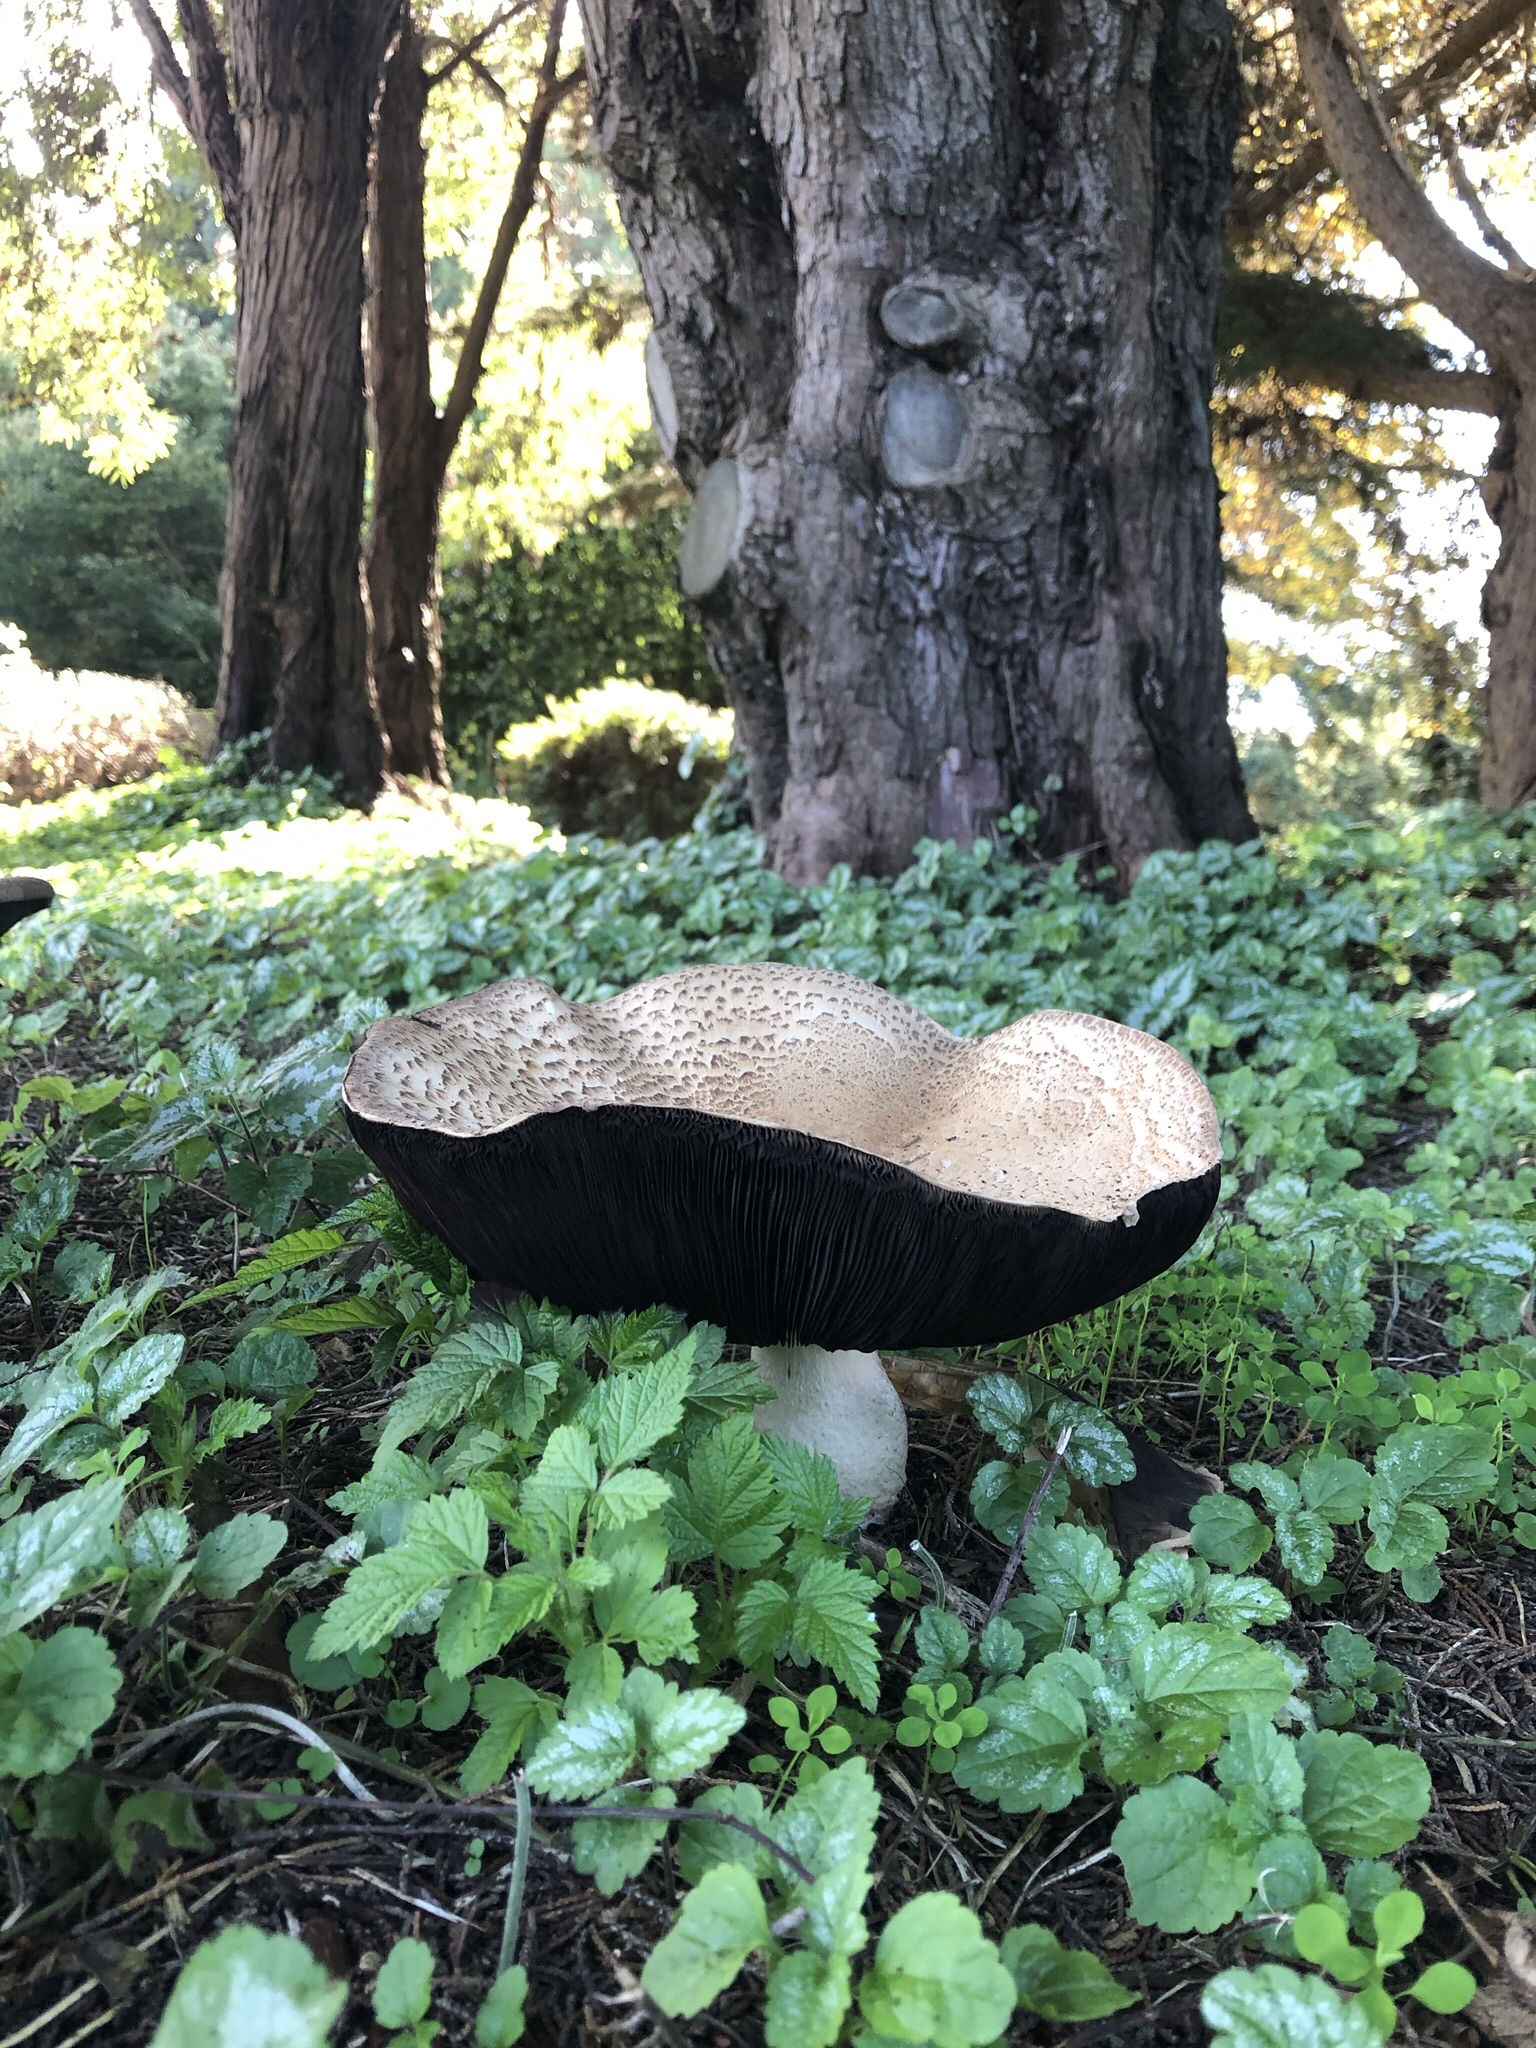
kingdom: Fungi
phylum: Basidiomycota
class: Agaricomycetes
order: Agaricales
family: Agaricaceae
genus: Agaricus
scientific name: Agaricus augustus
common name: Prince
